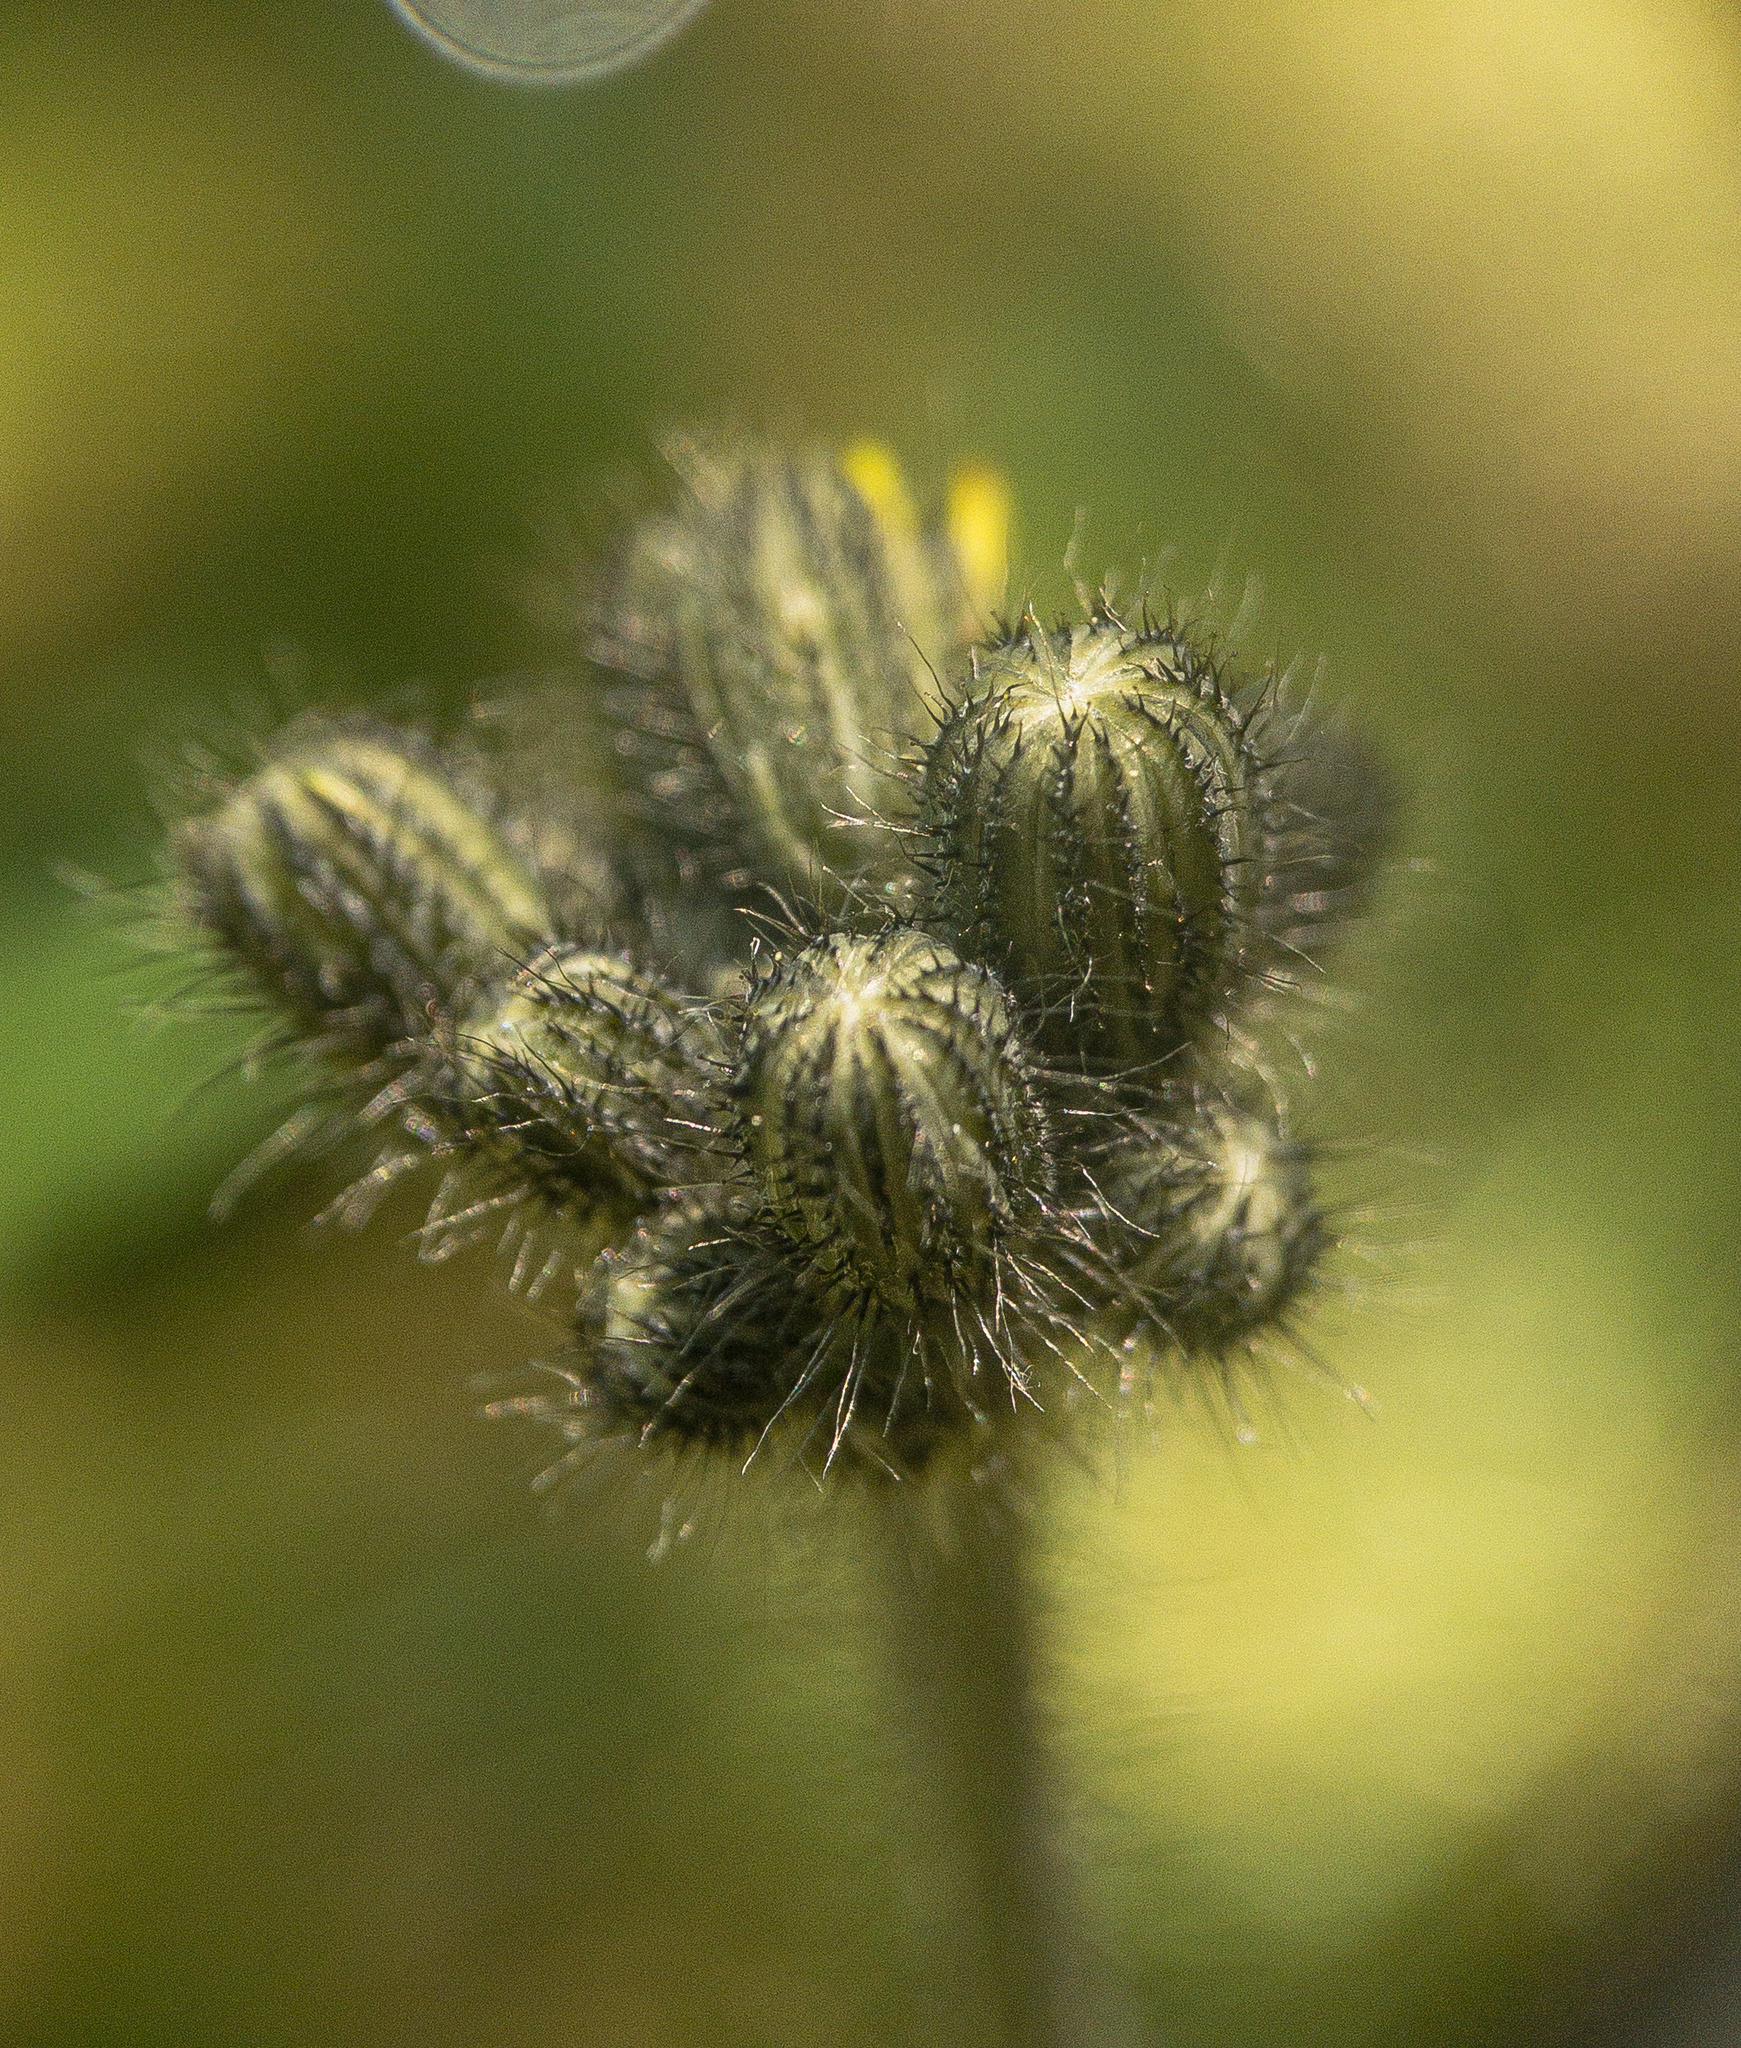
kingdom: Plantae
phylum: Tracheophyta
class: Magnoliopsida
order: Asterales
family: Asteraceae
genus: Pilosella
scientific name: Pilosella caespitosa
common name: Yellow fox-and-cubs
